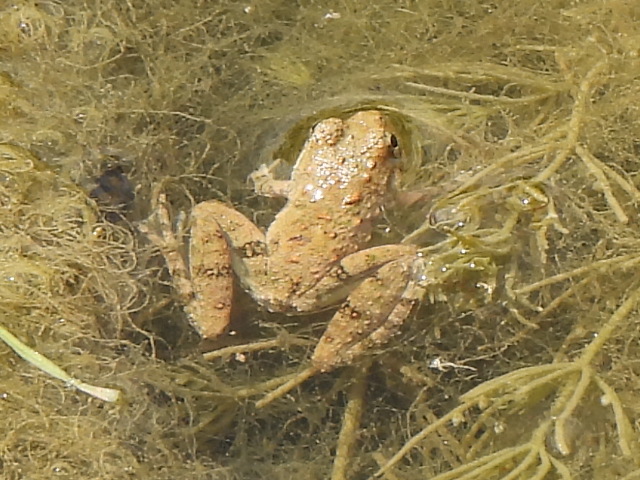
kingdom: Animalia
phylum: Chordata
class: Amphibia
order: Anura
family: Hylidae
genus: Acris
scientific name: Acris blanchardi
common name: Blanchard's cricket frog
